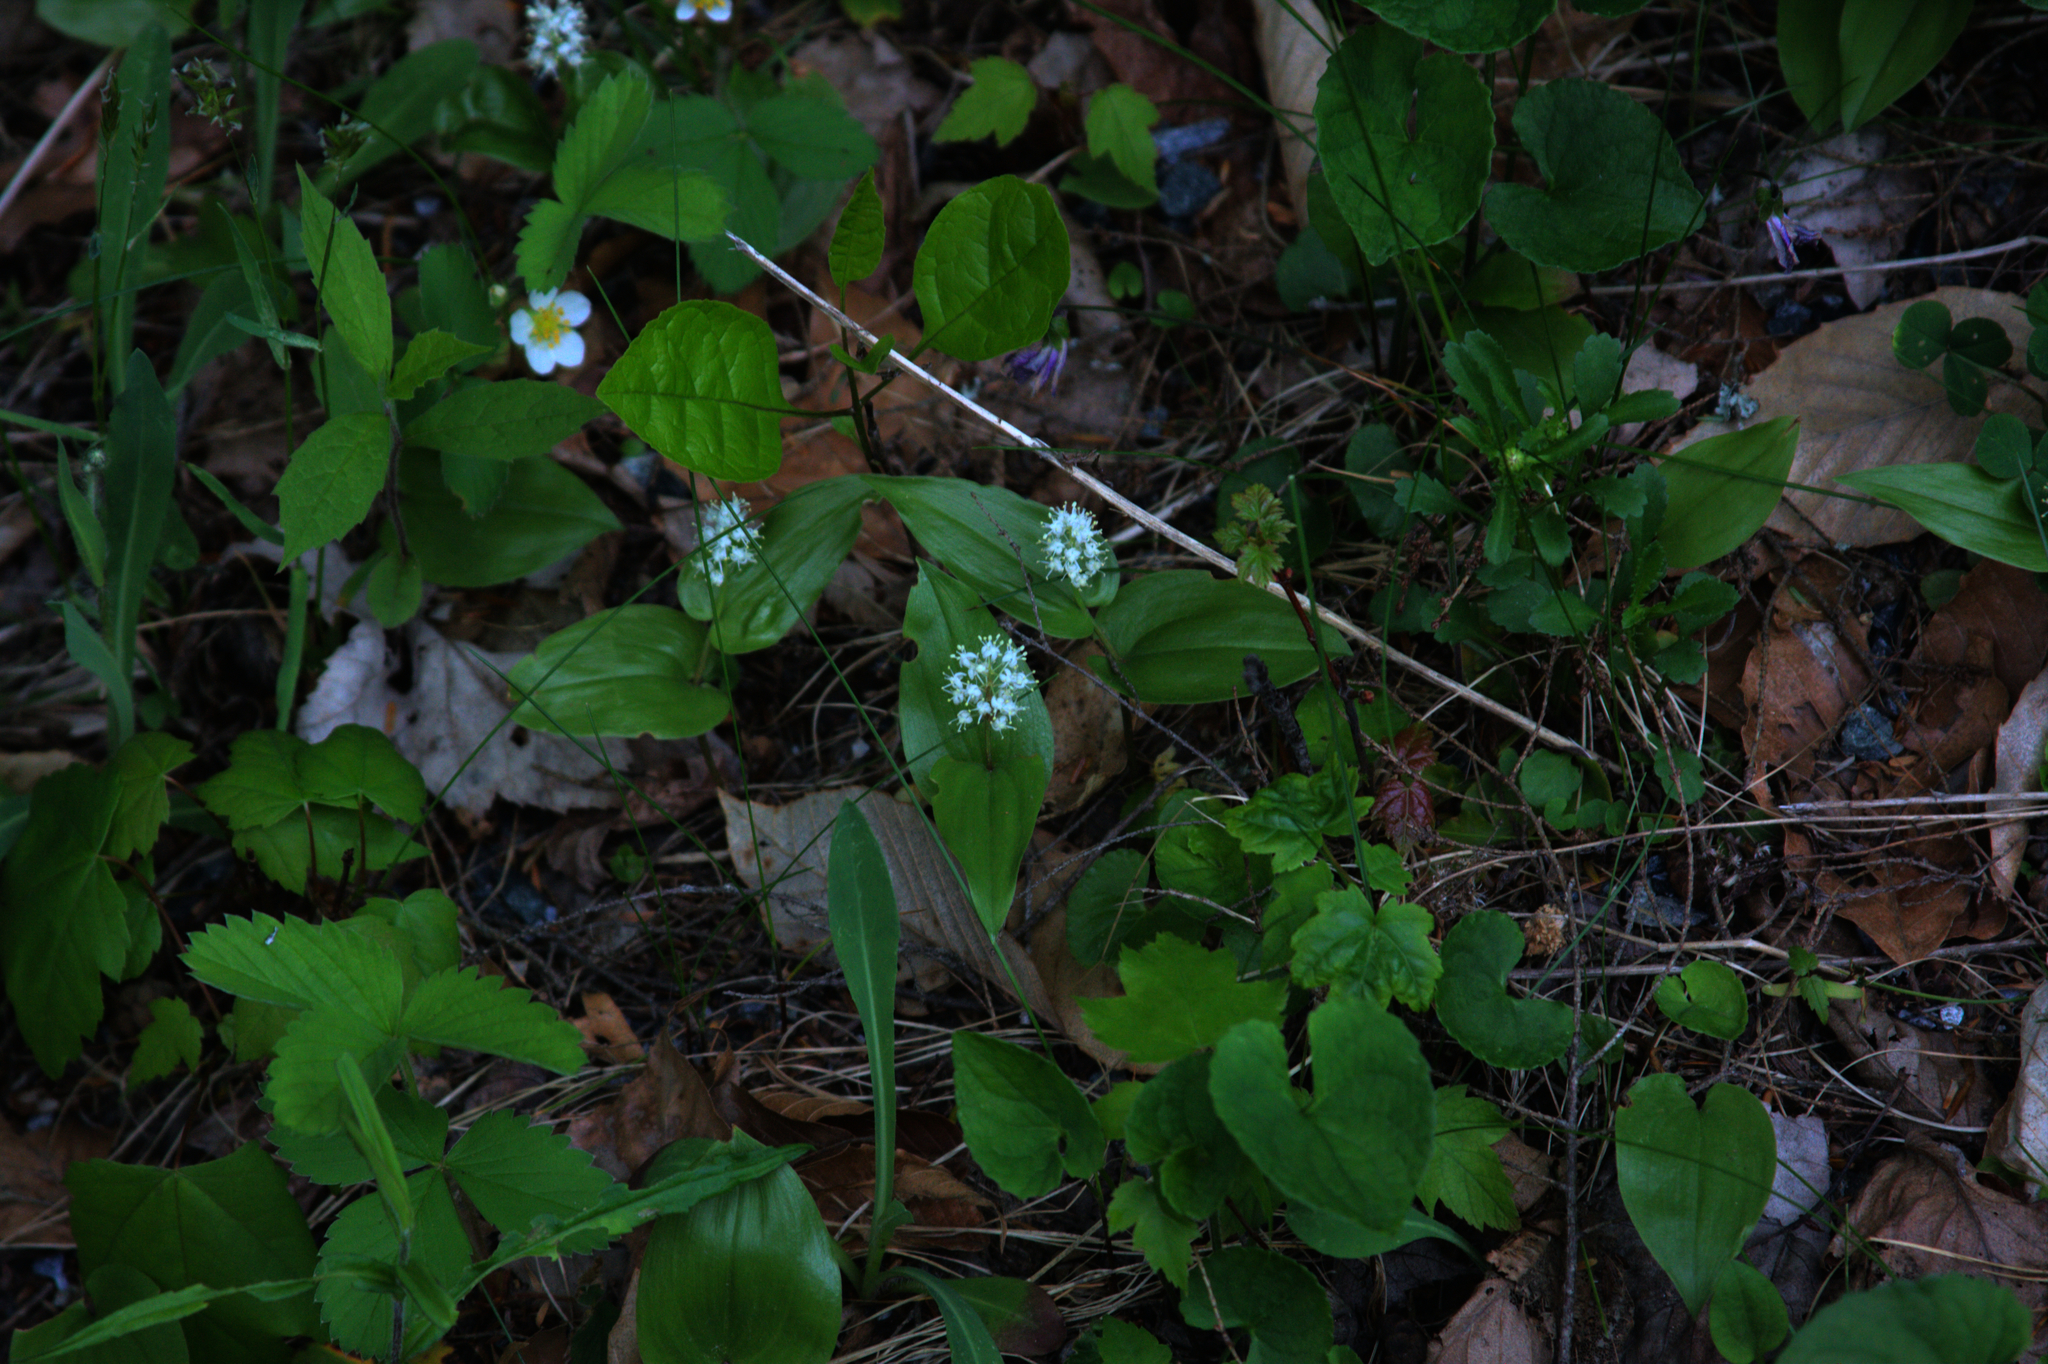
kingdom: Plantae
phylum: Tracheophyta
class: Liliopsida
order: Asparagales
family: Asparagaceae
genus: Maianthemum
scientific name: Maianthemum canadense
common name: False lily-of-the-valley
